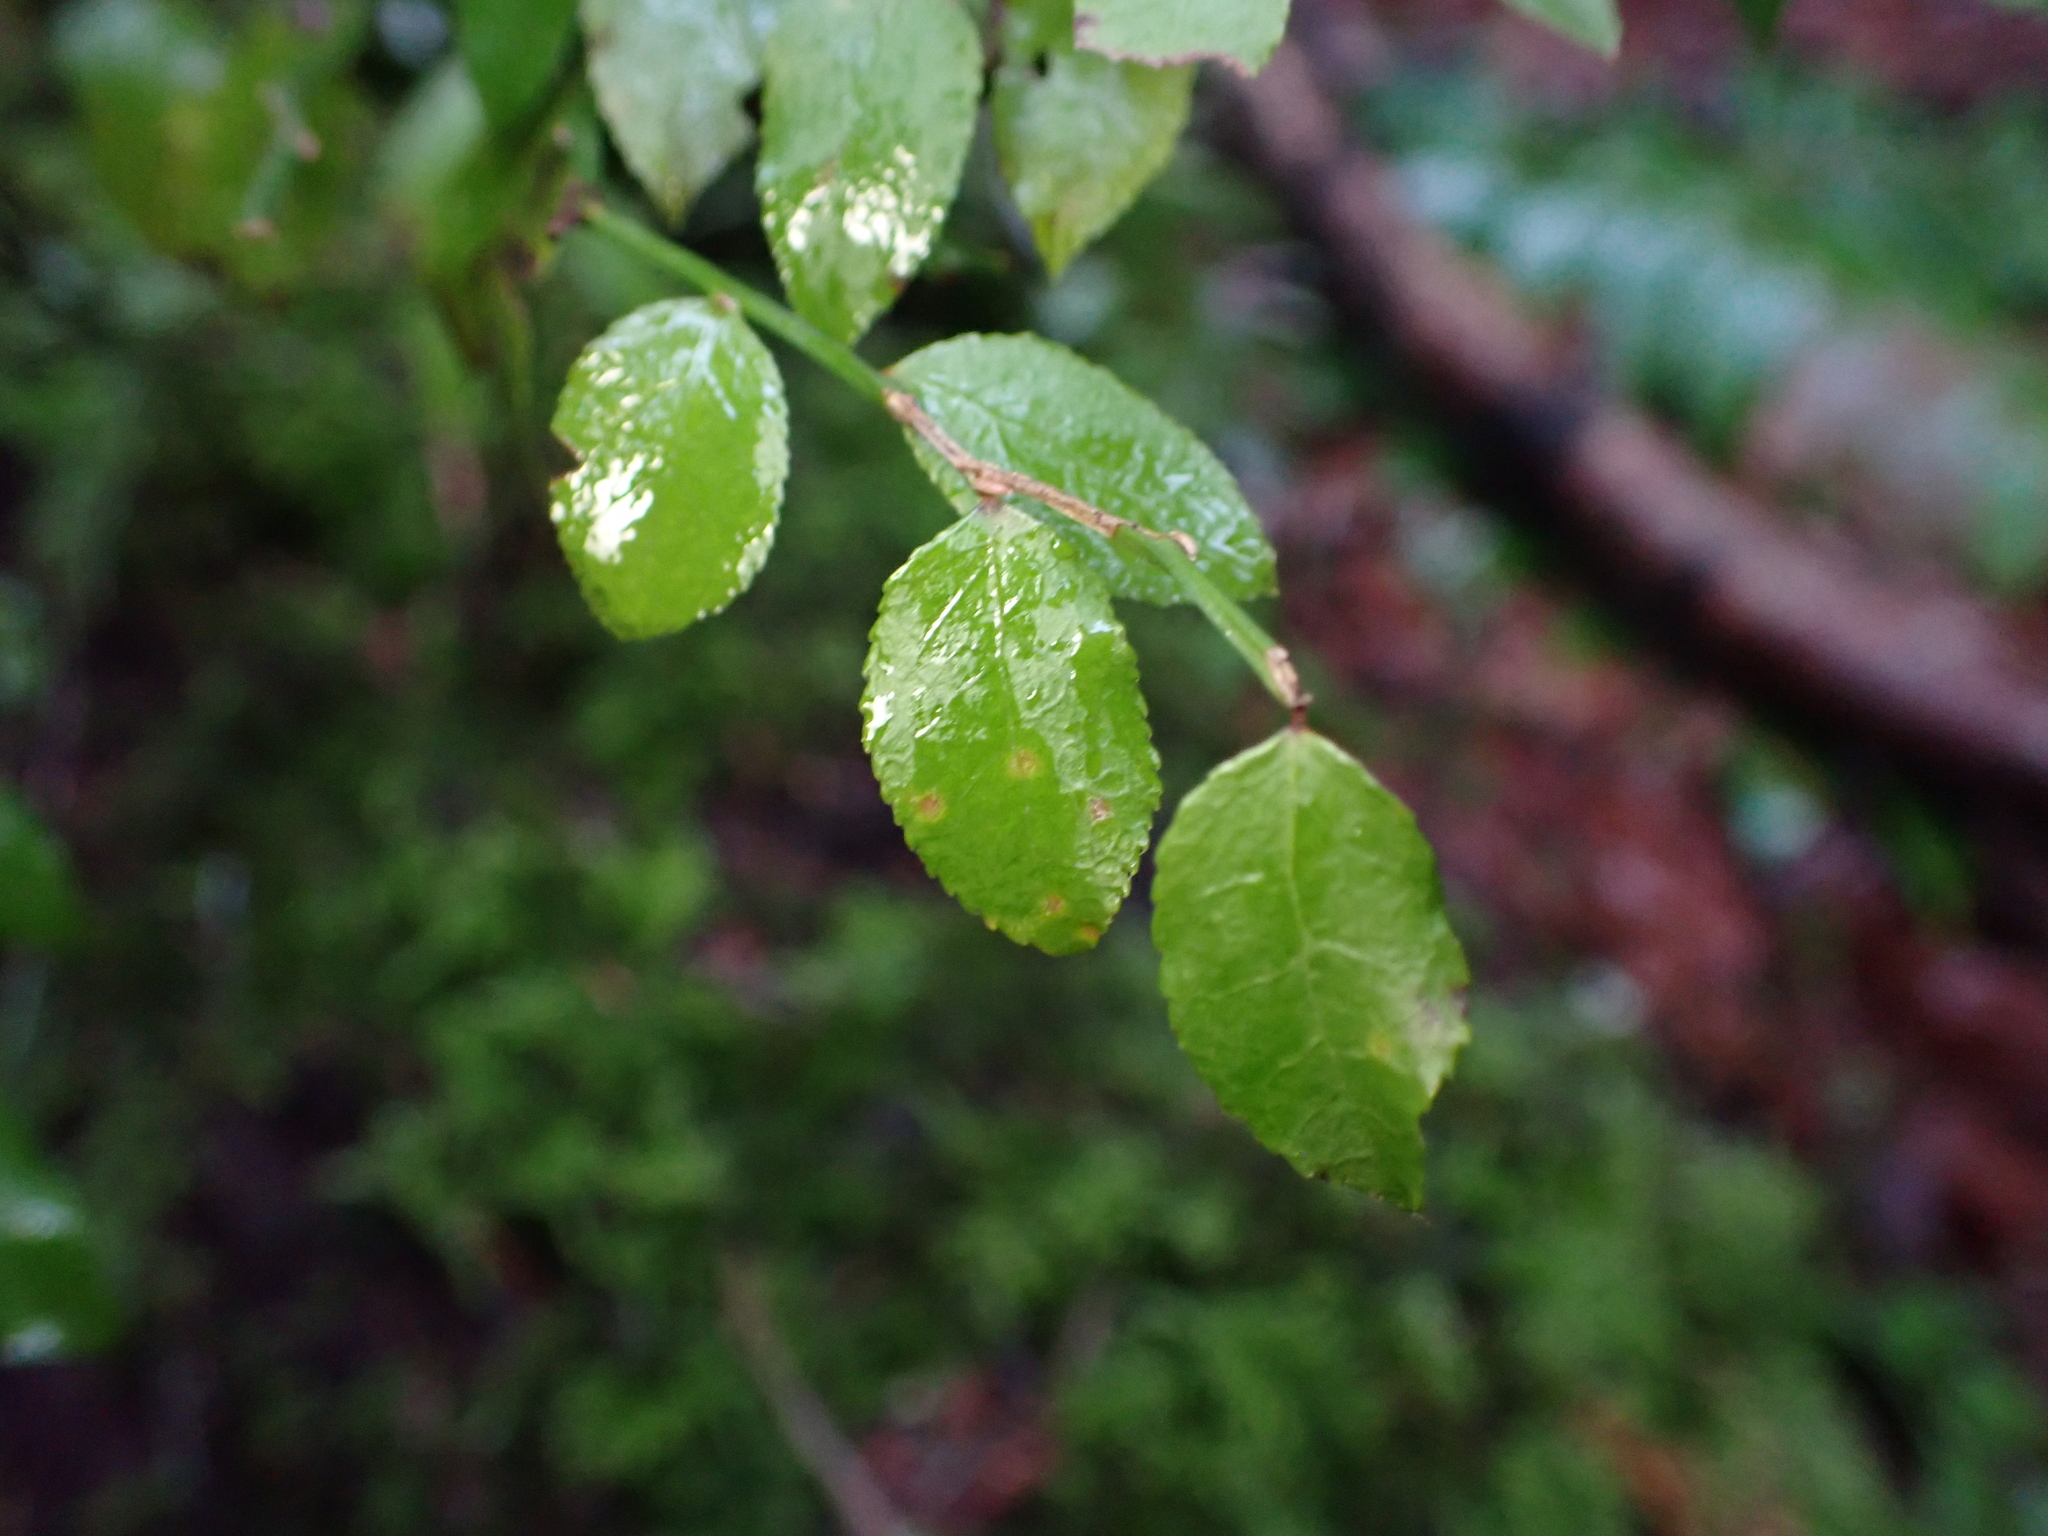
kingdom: Plantae
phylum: Tracheophyta
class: Magnoliopsida
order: Ericales
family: Ericaceae
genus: Vaccinium
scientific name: Vaccinium parvifolium
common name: Red-huckleberry
